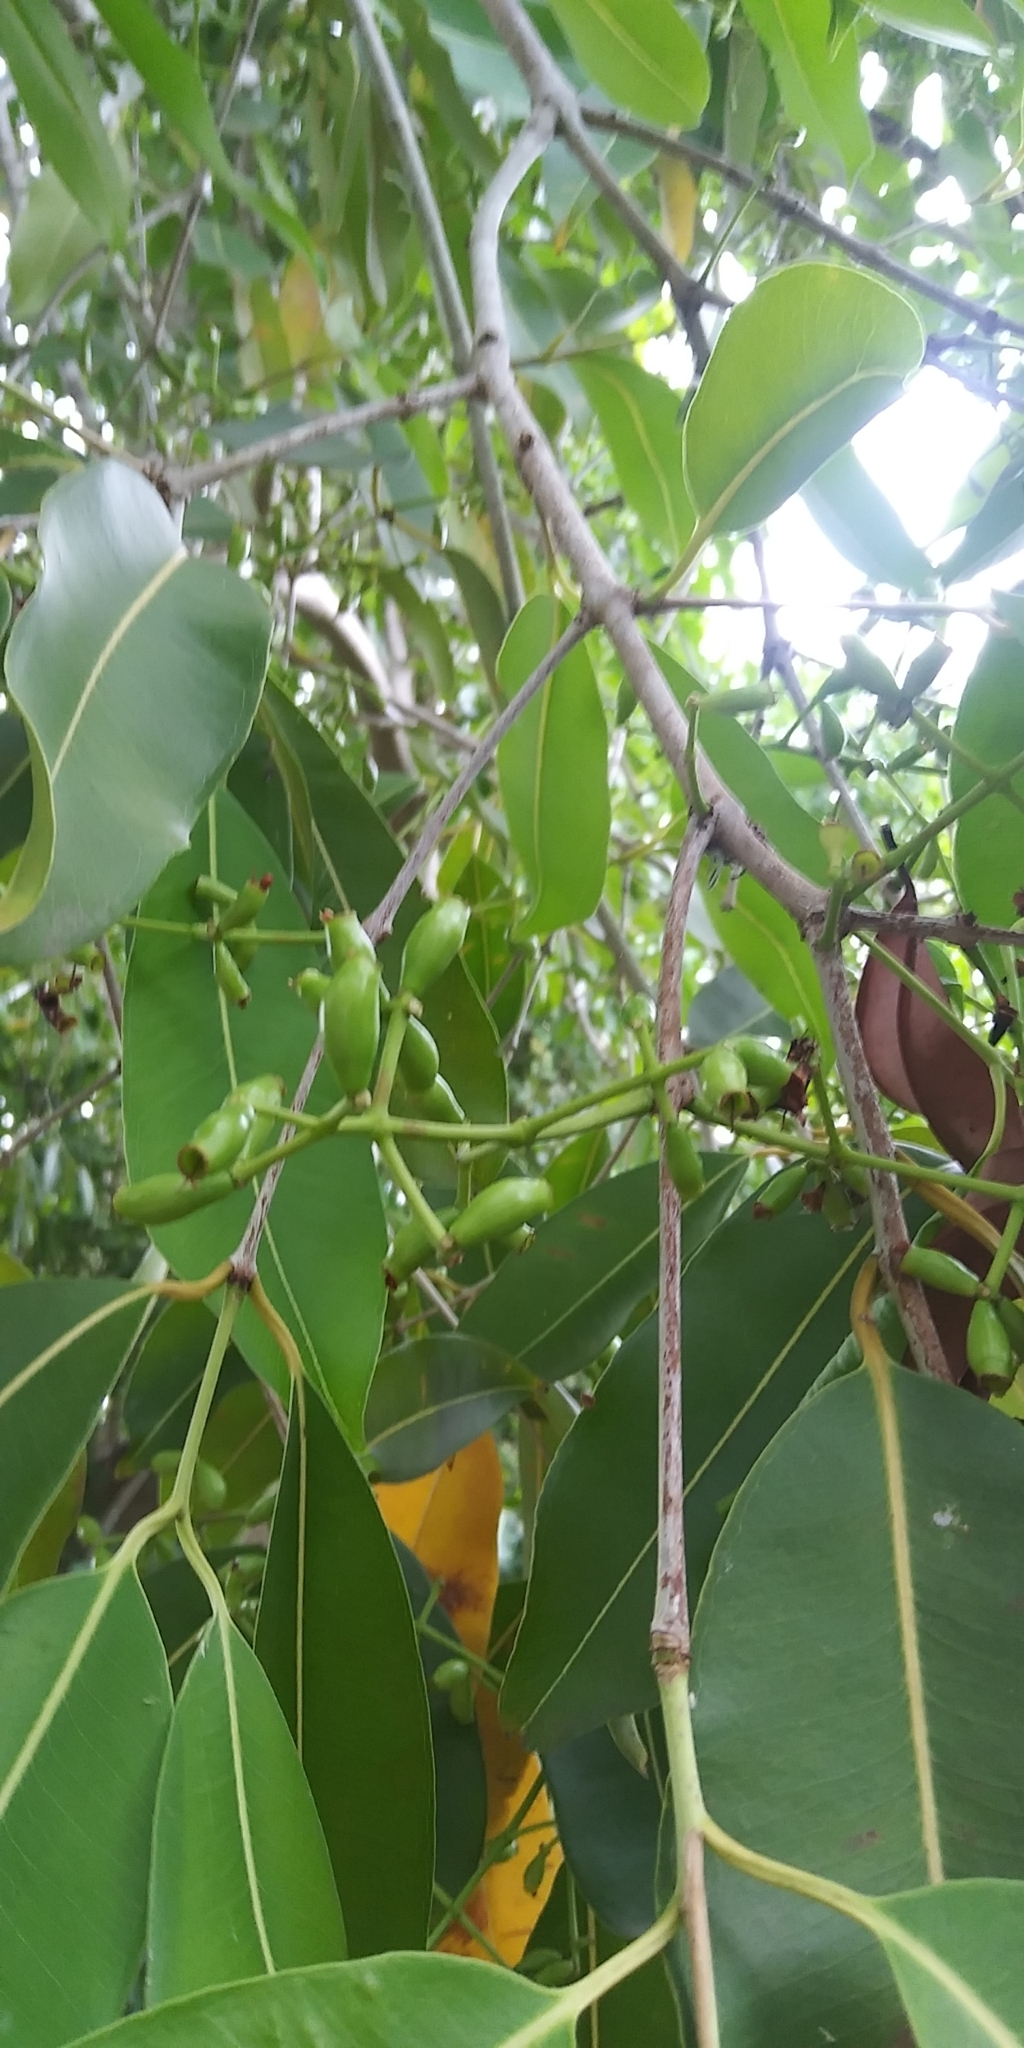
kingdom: Plantae
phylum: Tracheophyta
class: Magnoliopsida
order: Myrtales
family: Myrtaceae
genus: Syzygium
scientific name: Syzygium cumini
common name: Java plum
